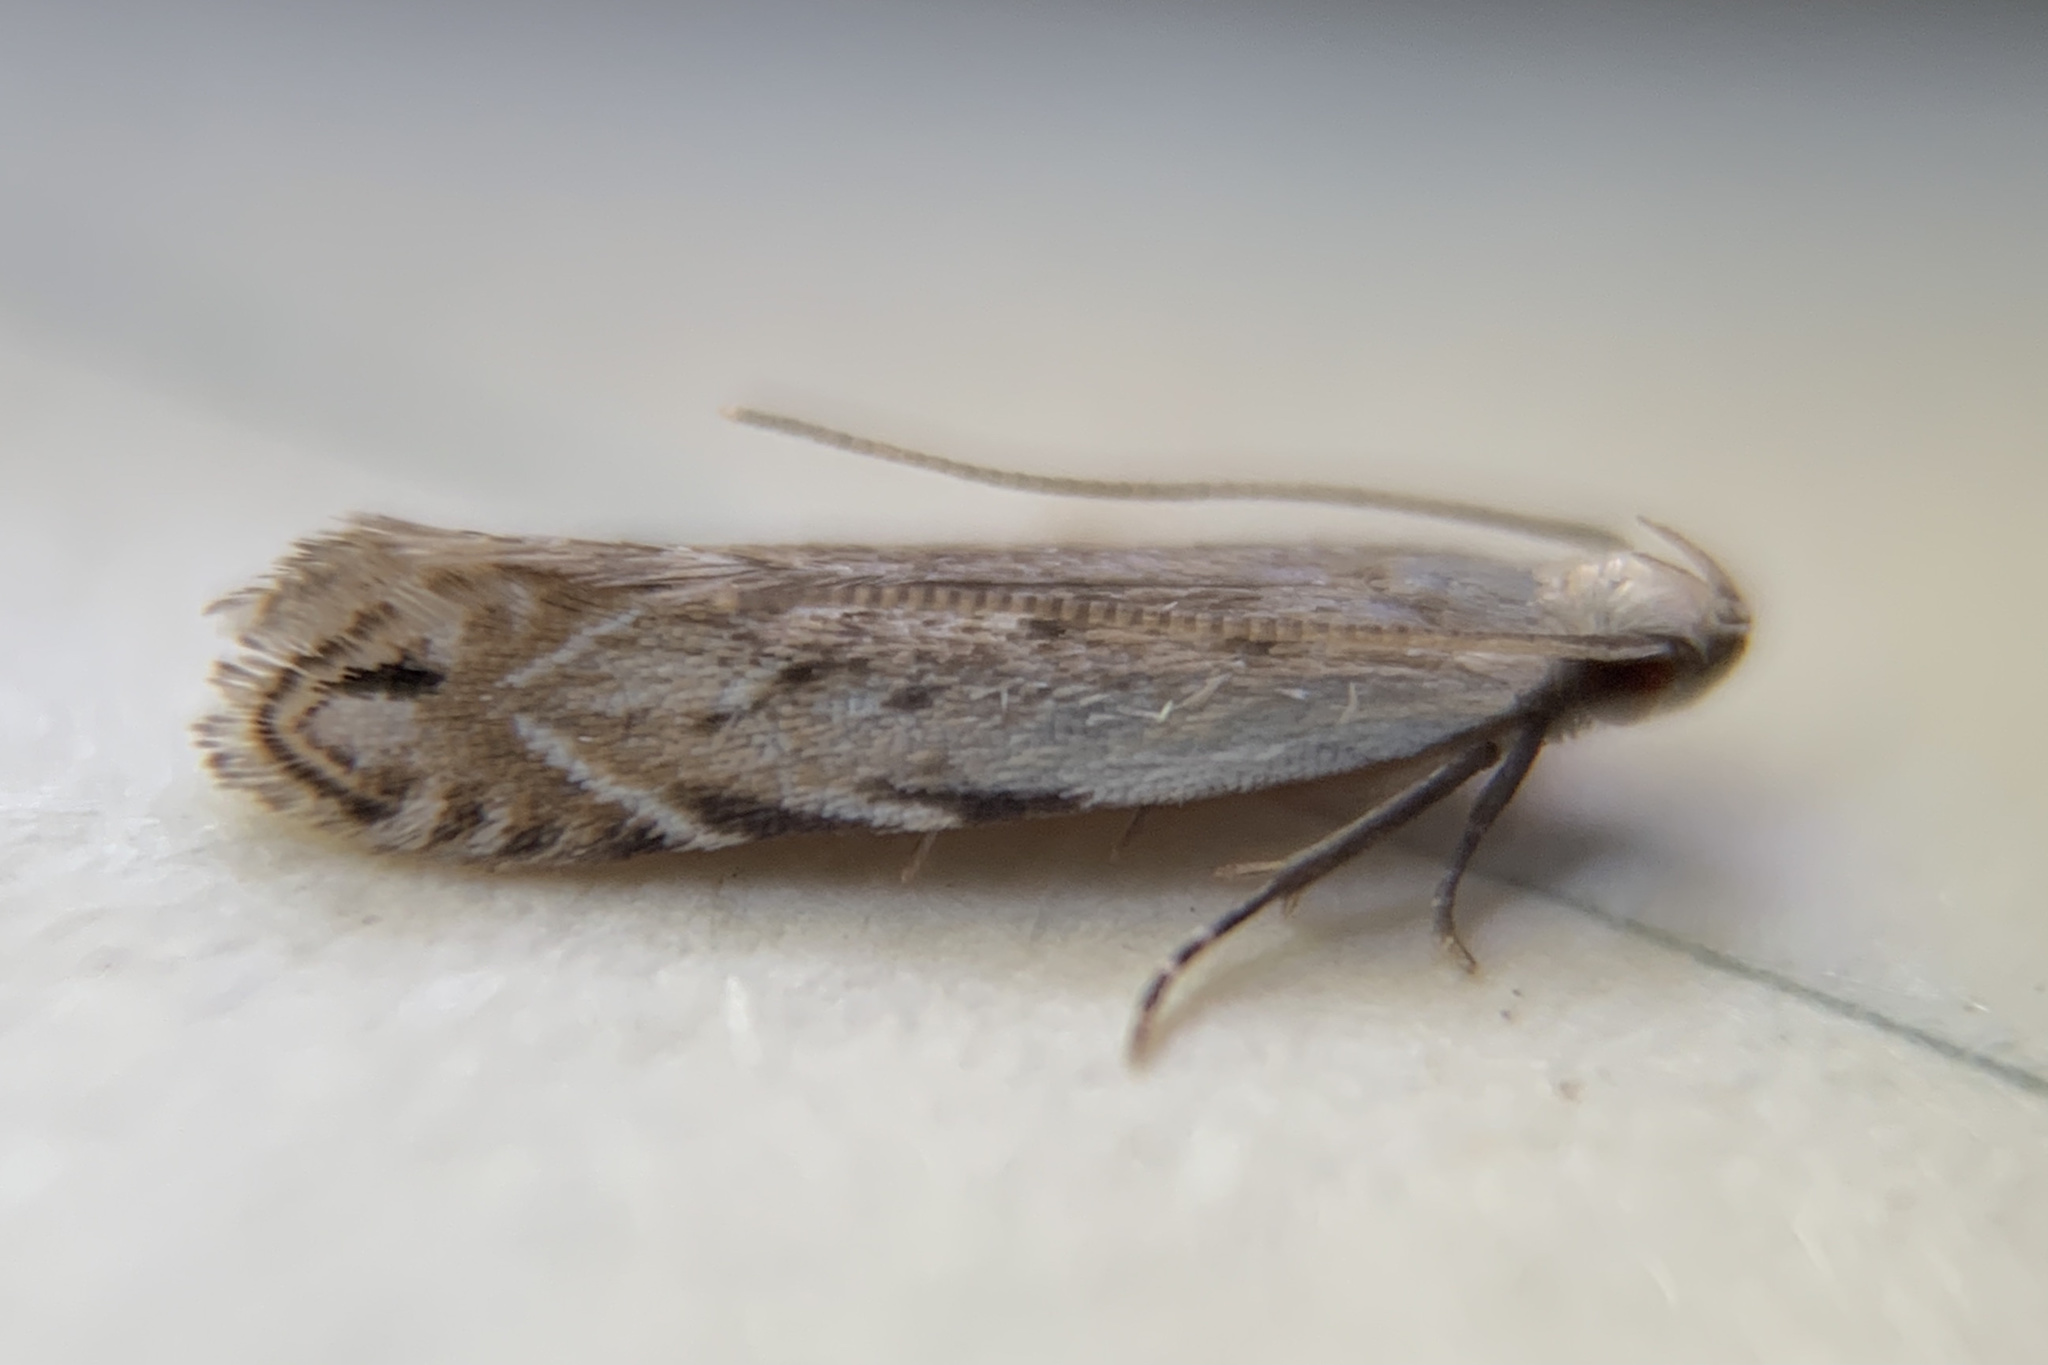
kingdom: Animalia
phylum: Arthropoda
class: Insecta
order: Lepidoptera
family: Gelechiidae
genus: Battaristis
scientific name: Battaristis nigratomella
